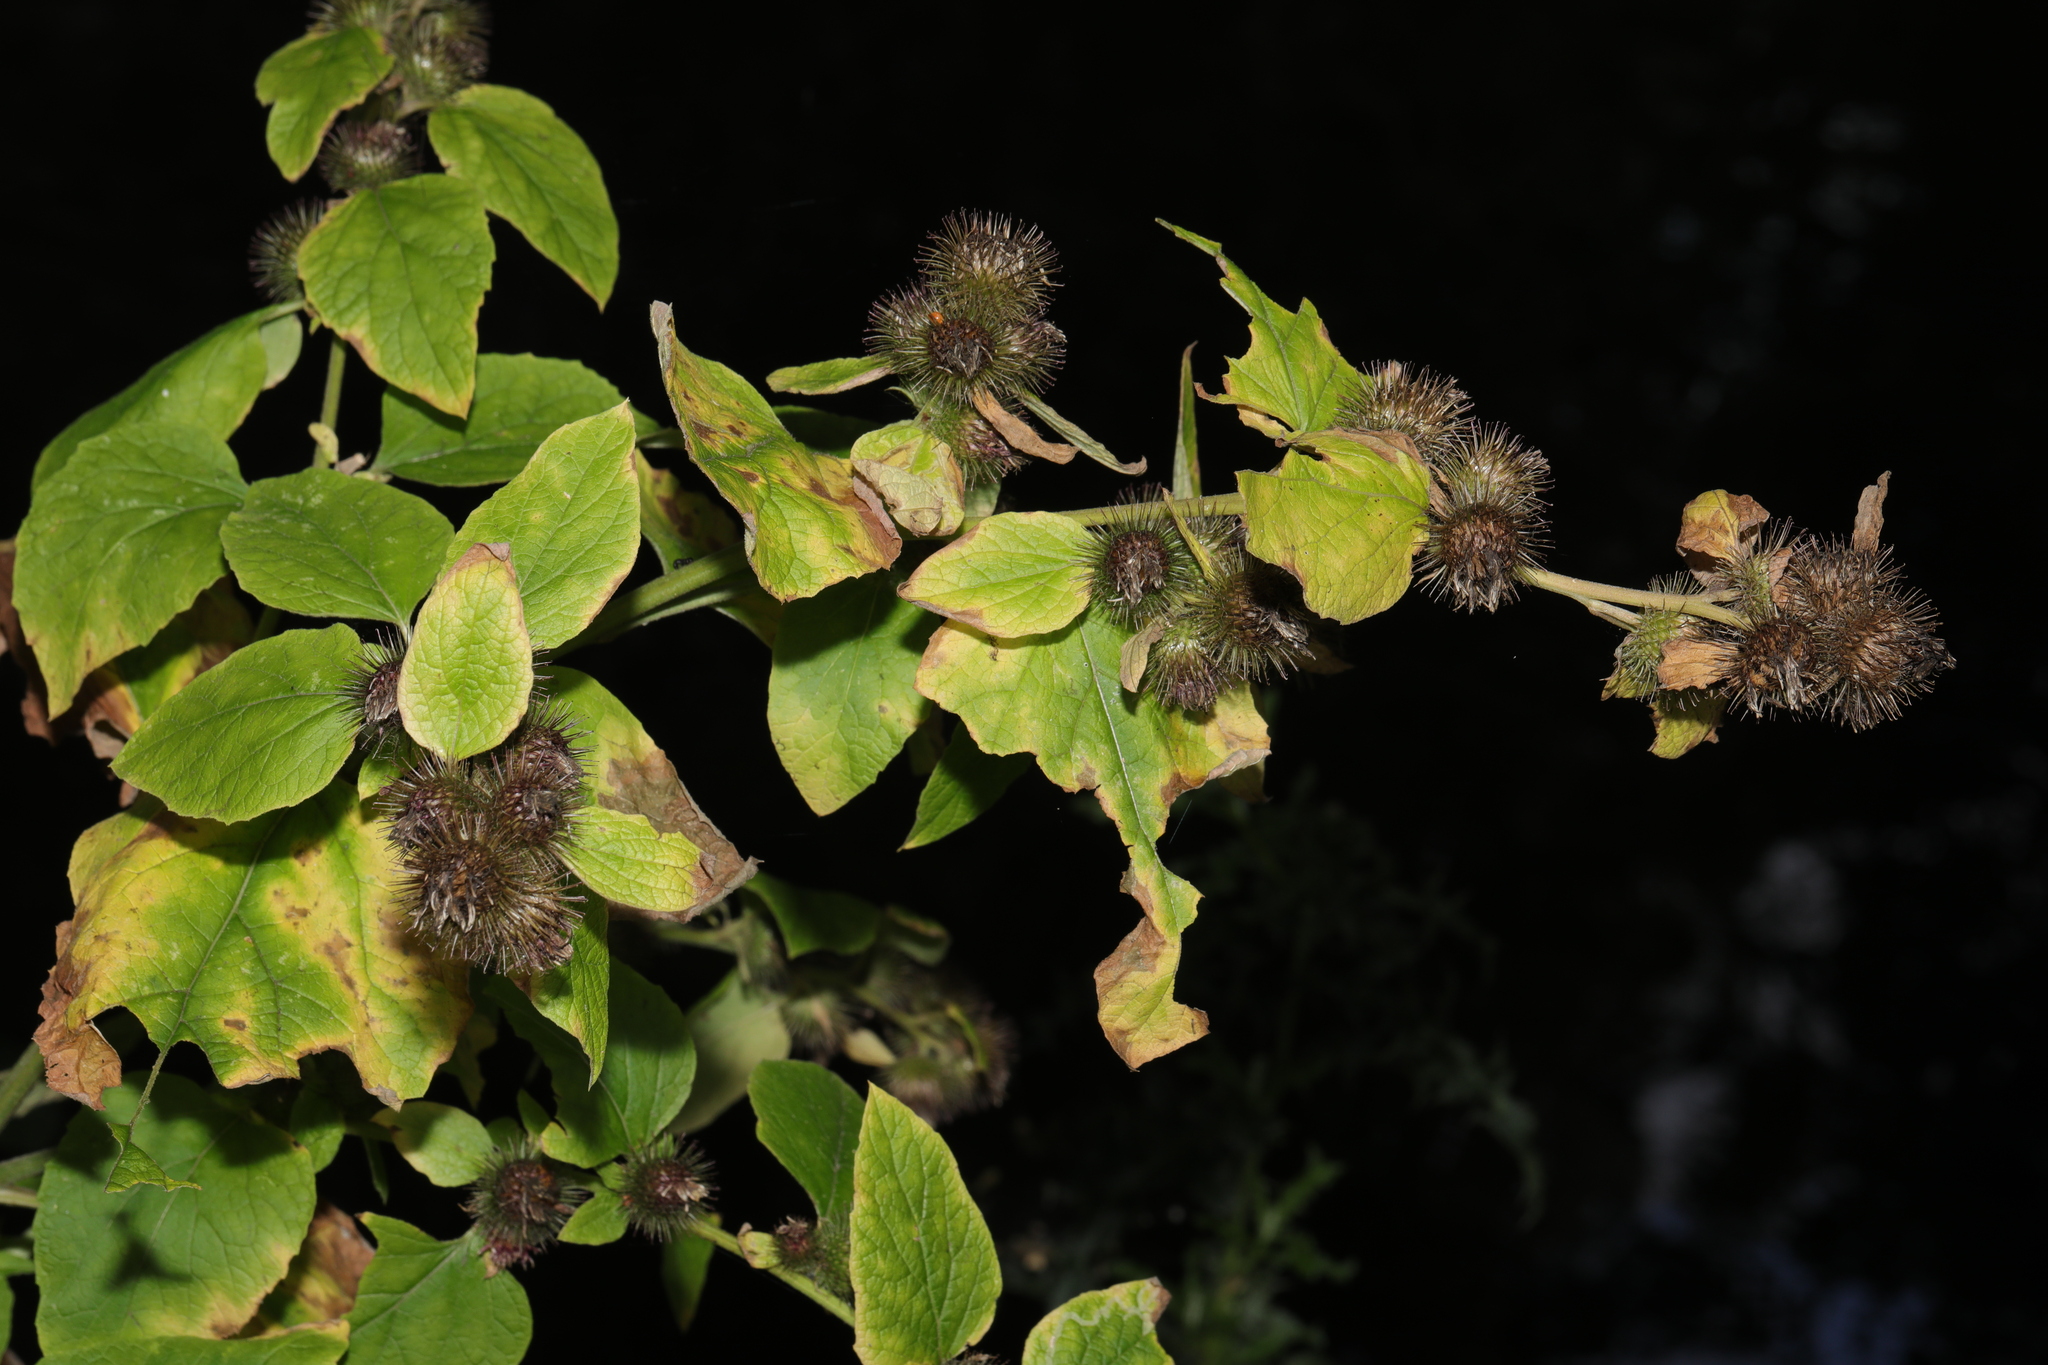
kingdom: Plantae
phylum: Tracheophyta
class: Magnoliopsida
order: Asterales
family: Asteraceae
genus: Arctium
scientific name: Arctium minus
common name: Lesser burdock
